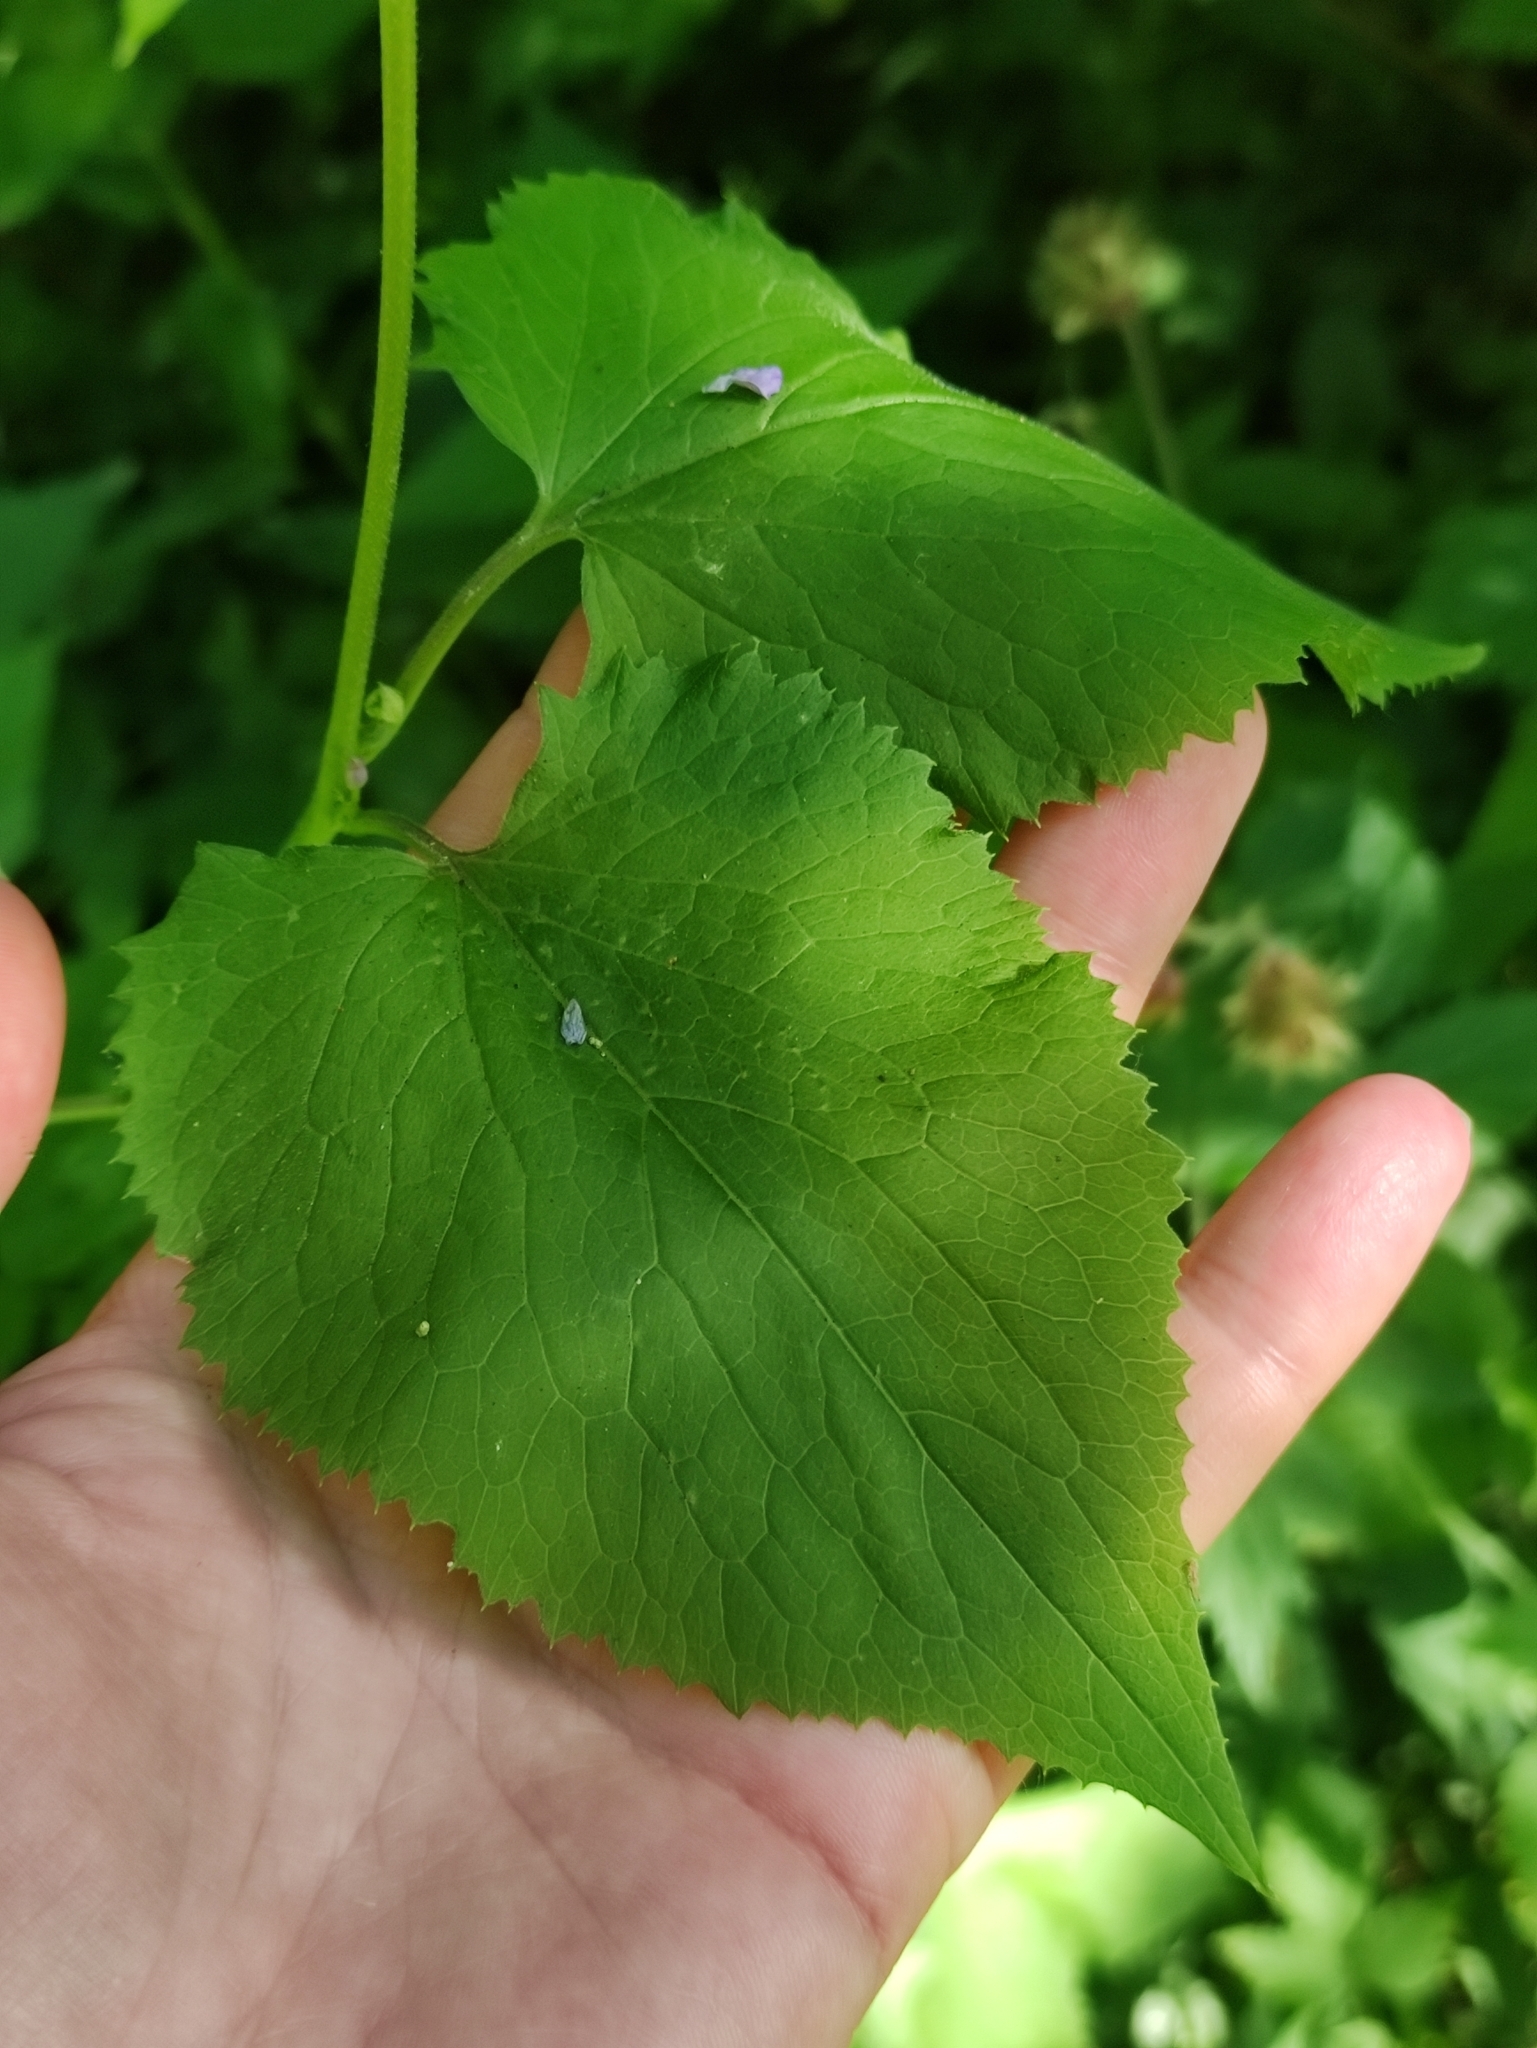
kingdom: Plantae
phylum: Tracheophyta
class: Magnoliopsida
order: Brassicales
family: Brassicaceae
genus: Lunaria
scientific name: Lunaria rediviva
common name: Perennial honesty
